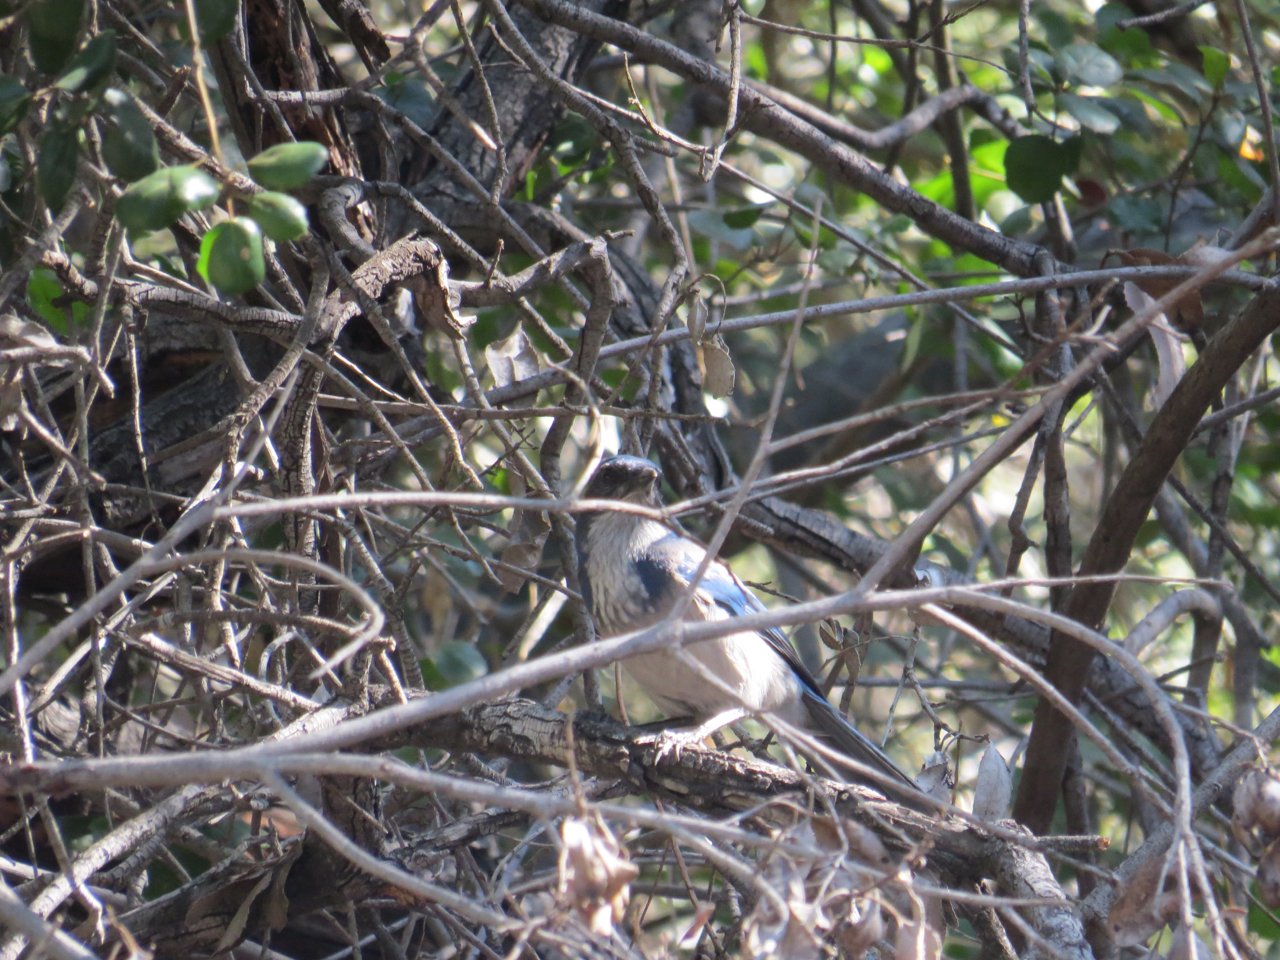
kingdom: Animalia
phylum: Chordata
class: Aves
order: Passeriformes
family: Corvidae
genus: Aphelocoma
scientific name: Aphelocoma californica
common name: California scrub-jay
